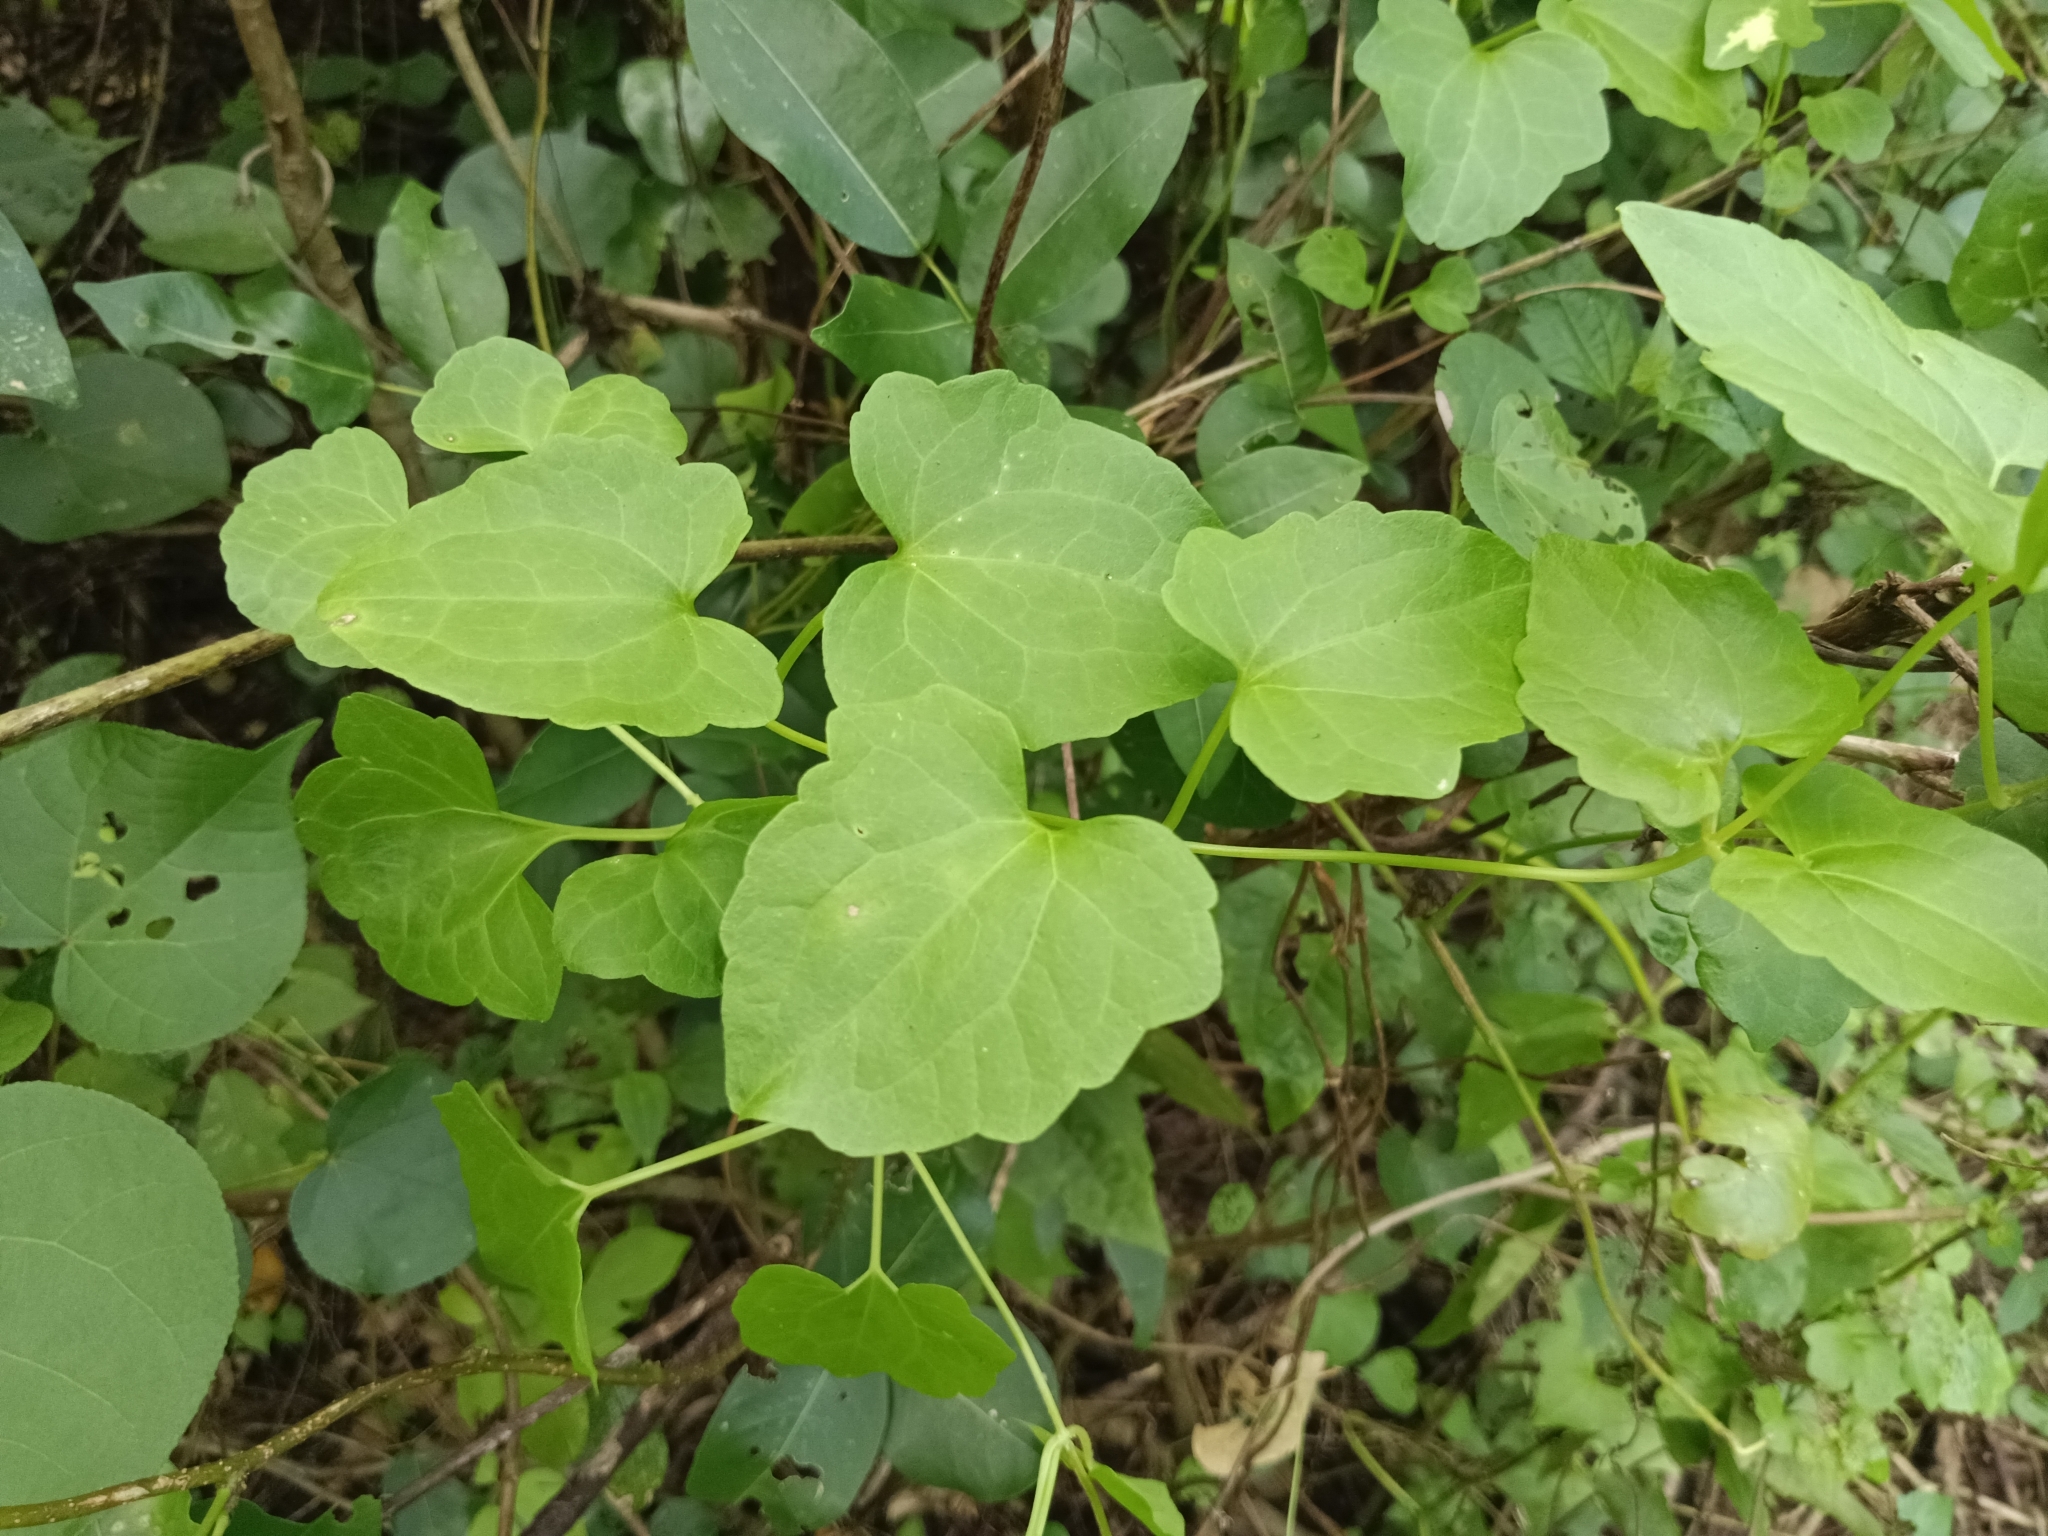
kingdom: Plantae
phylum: Tracheophyta
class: Magnoliopsida
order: Asterales
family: Asteraceae
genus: Mikania
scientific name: Mikania micrantha
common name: Mile-a-minute
